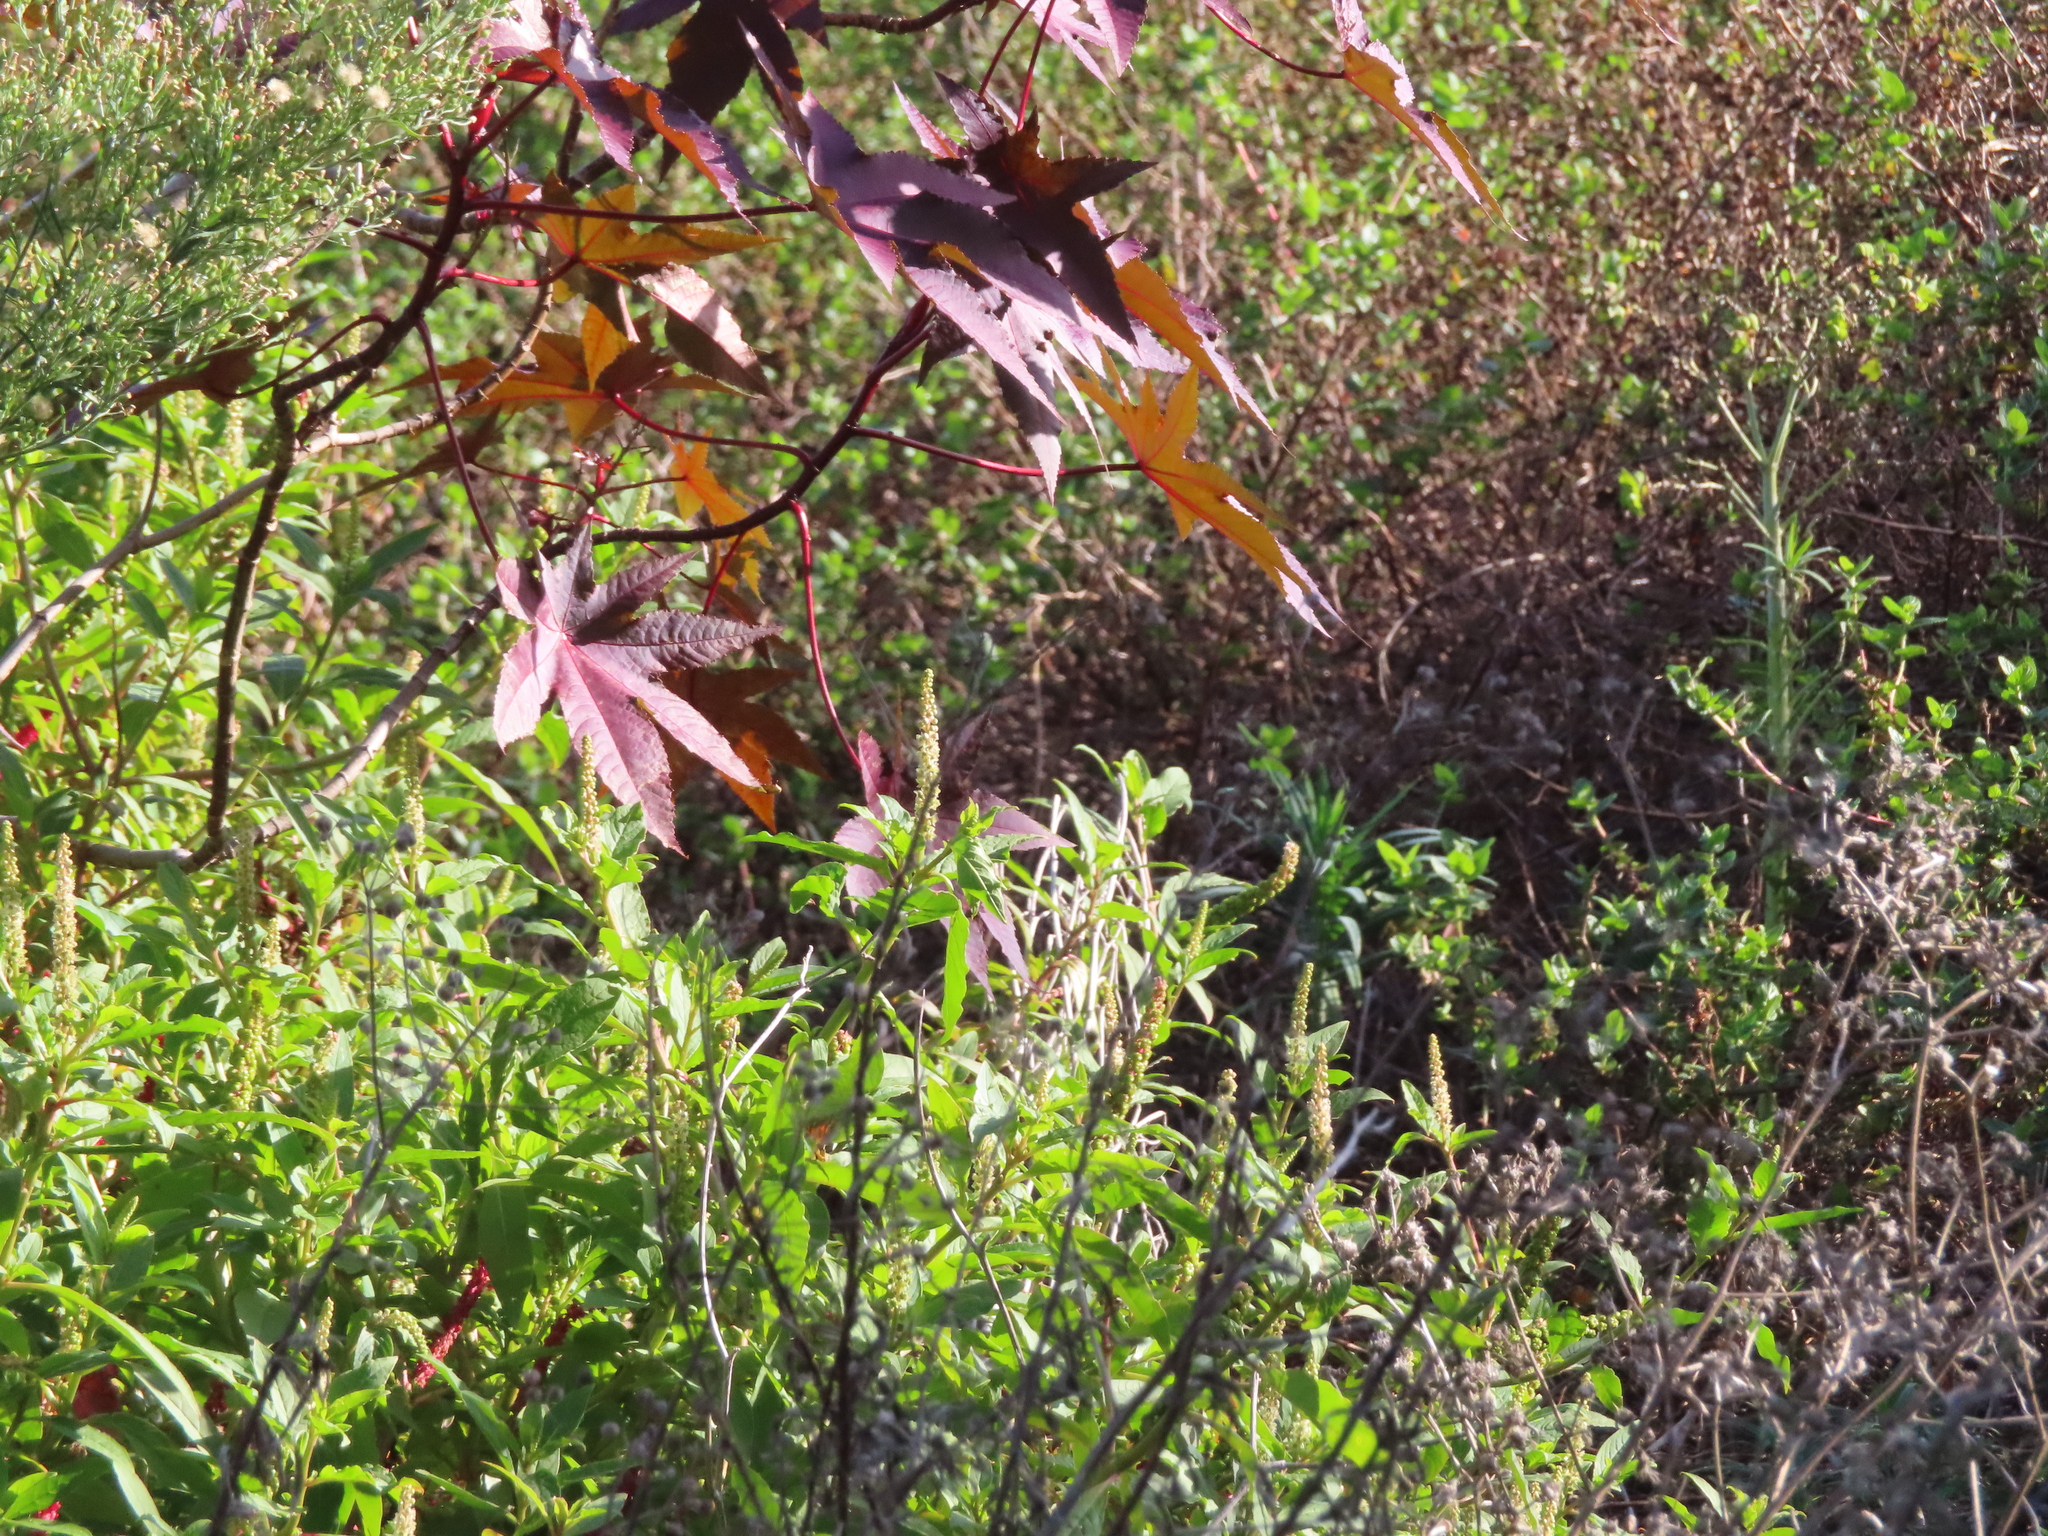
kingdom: Plantae
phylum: Tracheophyta
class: Magnoliopsida
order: Malpighiales
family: Euphorbiaceae
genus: Ricinus
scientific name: Ricinus communis
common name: Castor-oil-plant
